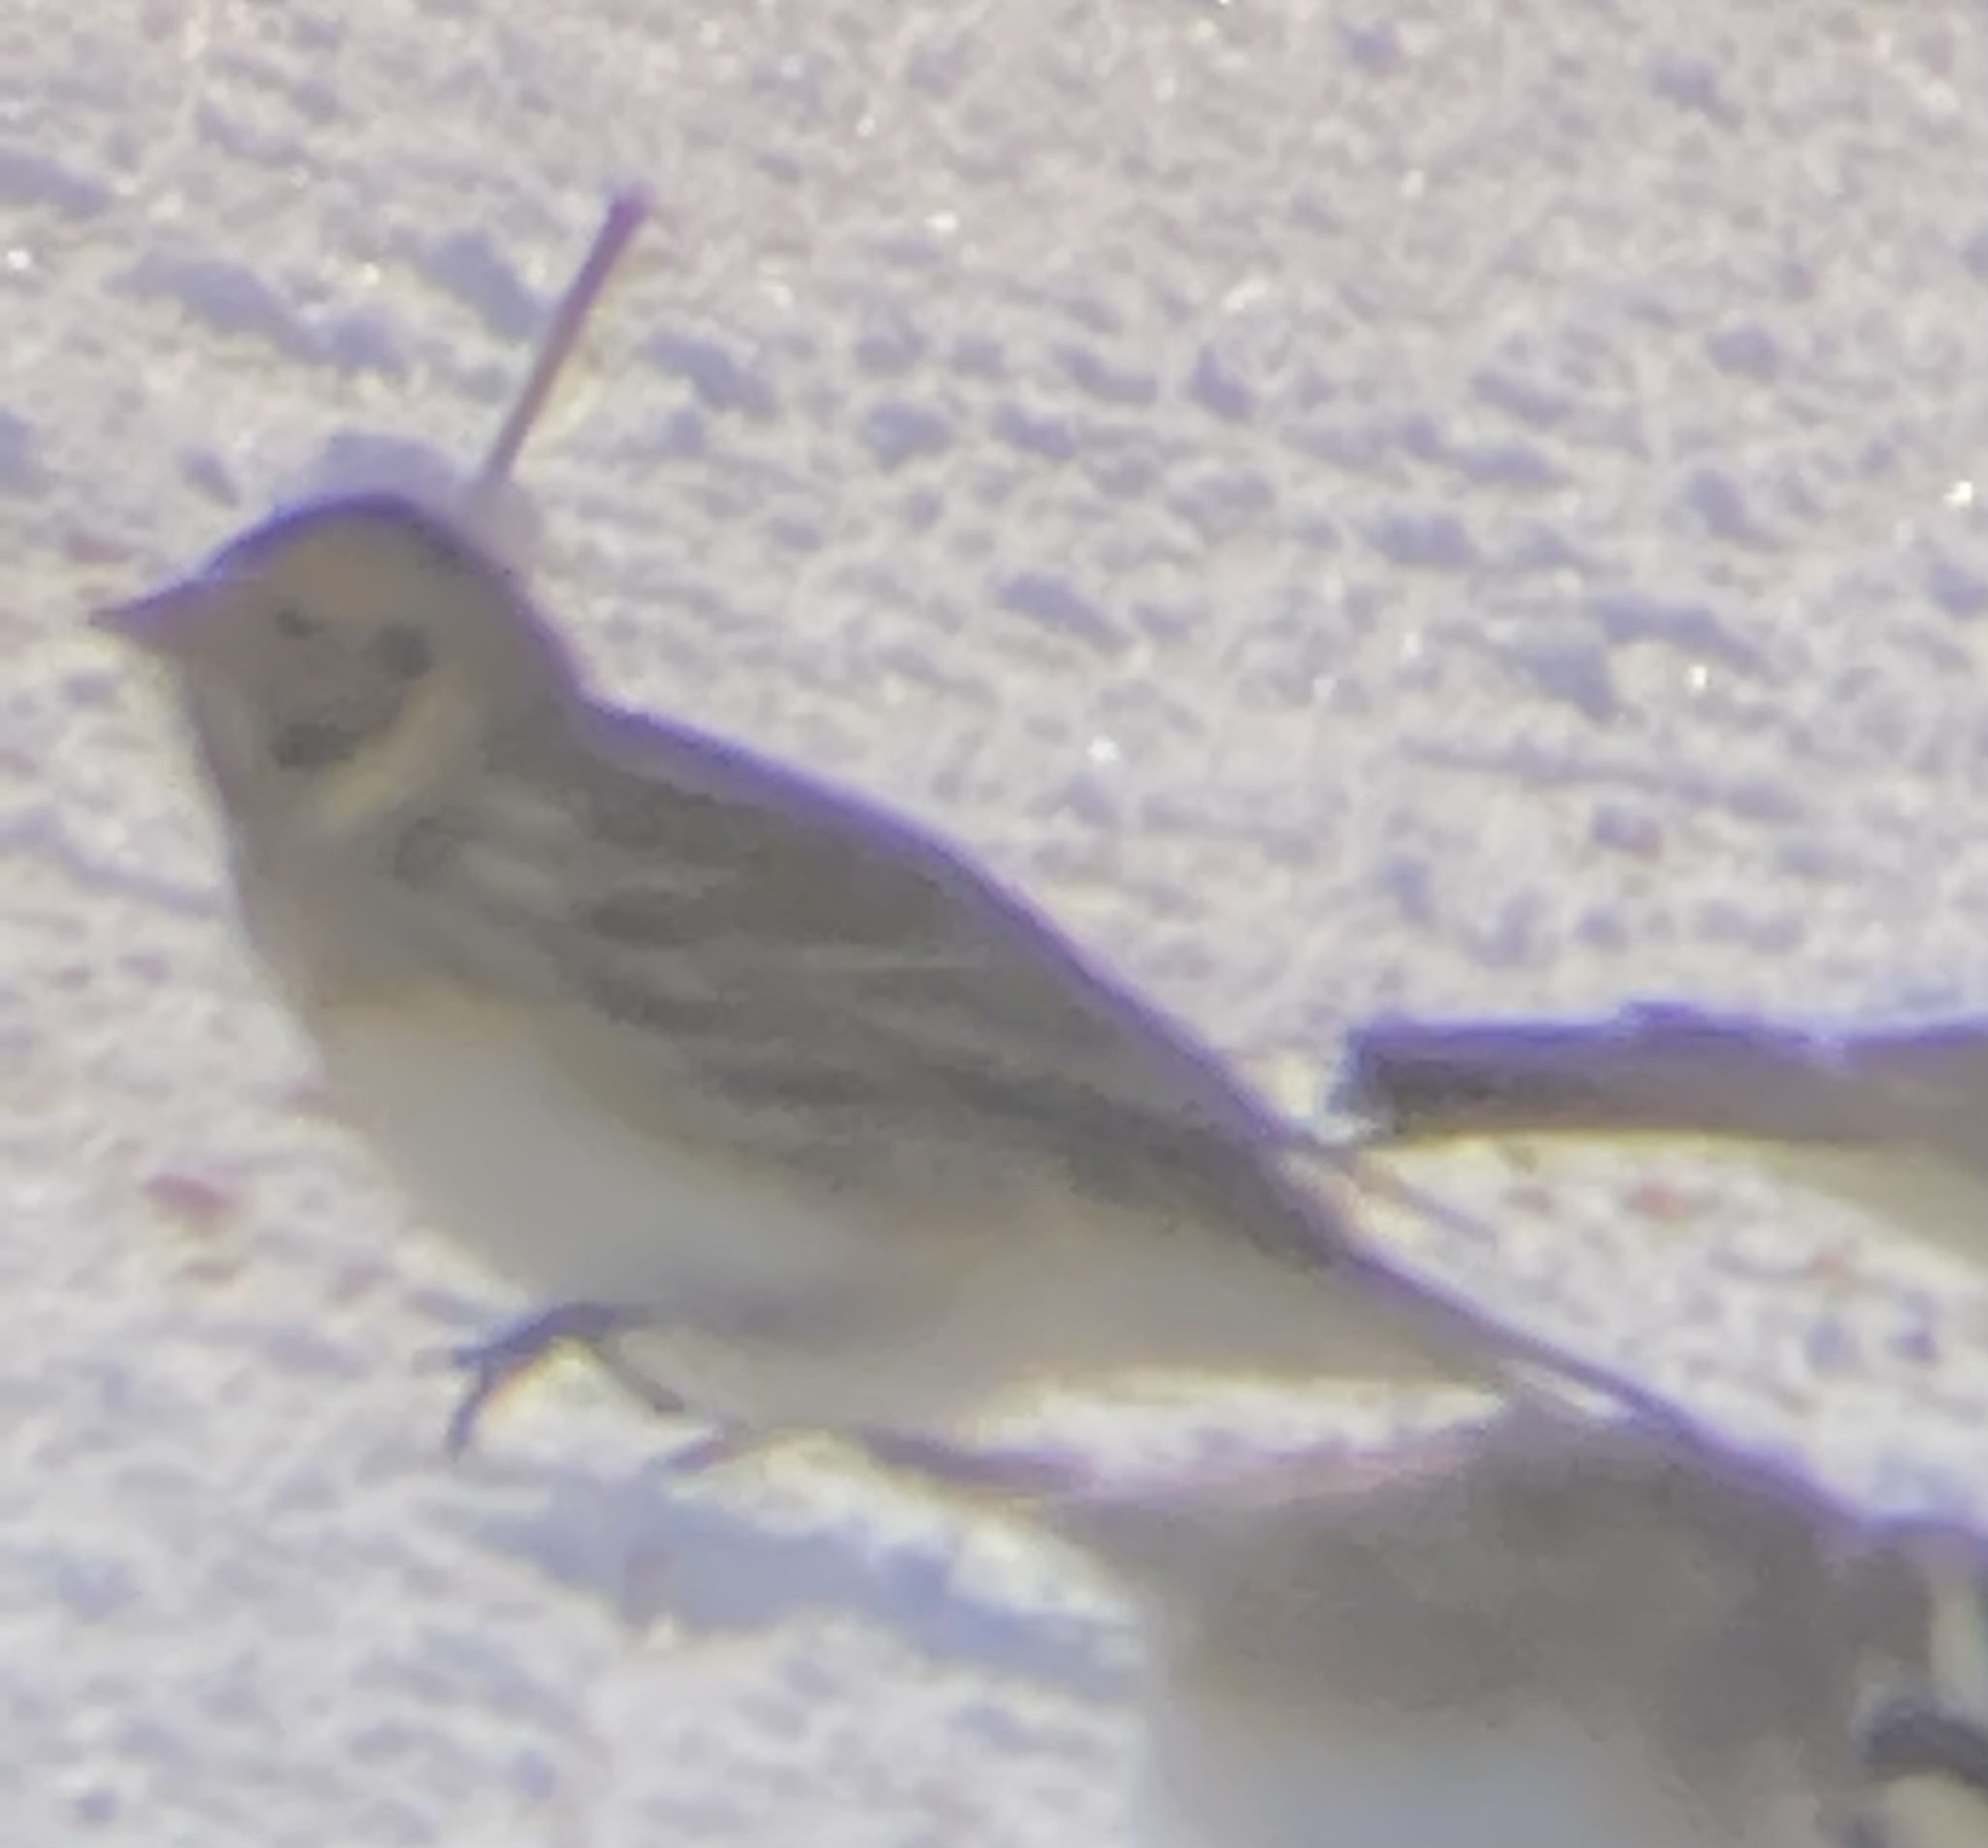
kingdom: Animalia
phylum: Chordata
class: Aves
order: Passeriformes
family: Calcariidae
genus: Calcarius
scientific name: Calcarius lapponicus
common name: Lapland longspur
